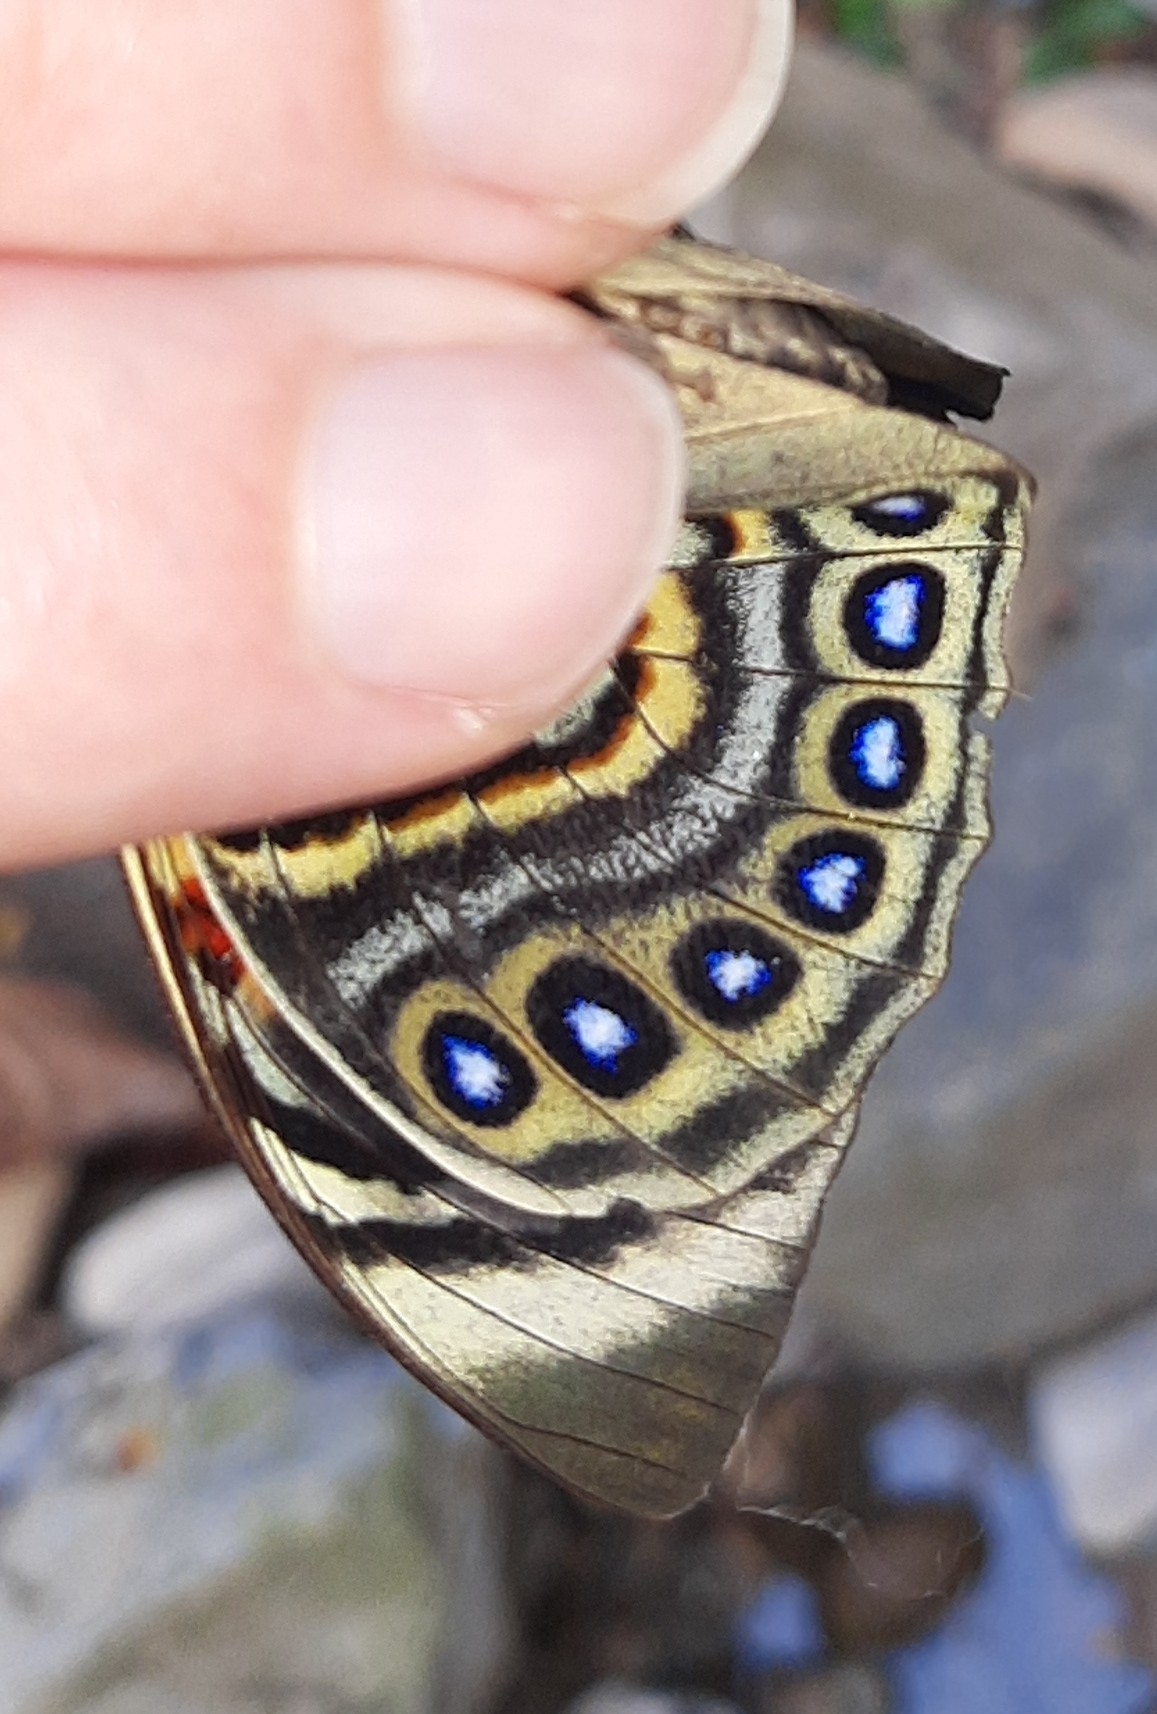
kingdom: Animalia
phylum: Arthropoda
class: Insecta
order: Lepidoptera
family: Nymphalidae
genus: Prepona
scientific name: Prepona claudina
